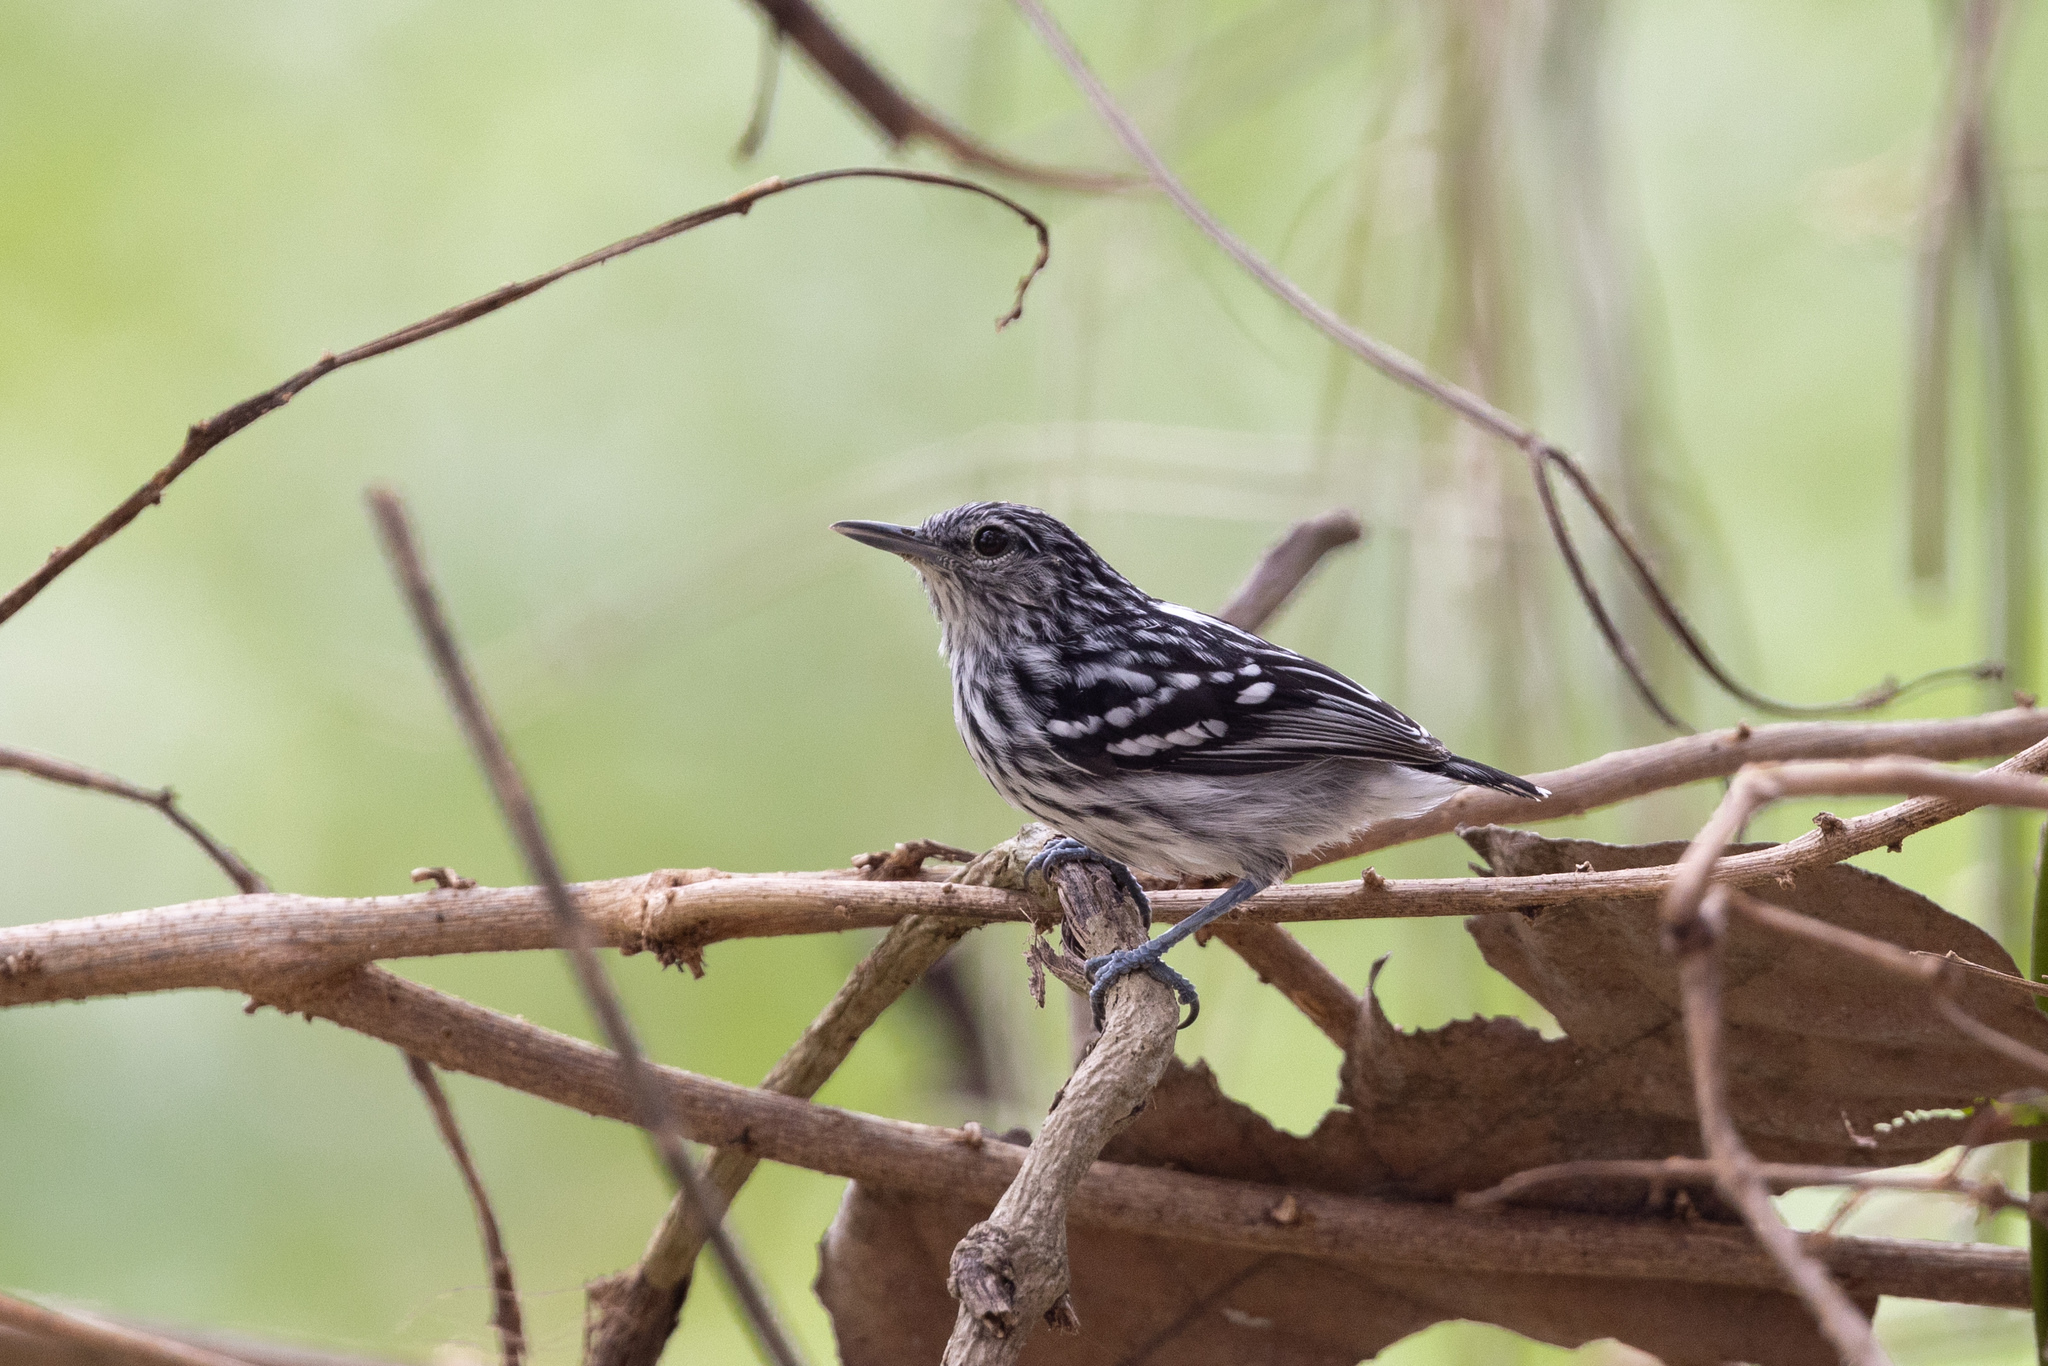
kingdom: Animalia
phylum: Chordata
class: Aves
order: Passeriformes
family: Thamnophilidae
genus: Myrmotherula
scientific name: Myrmotherula pacifica
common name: Pacific antwren
